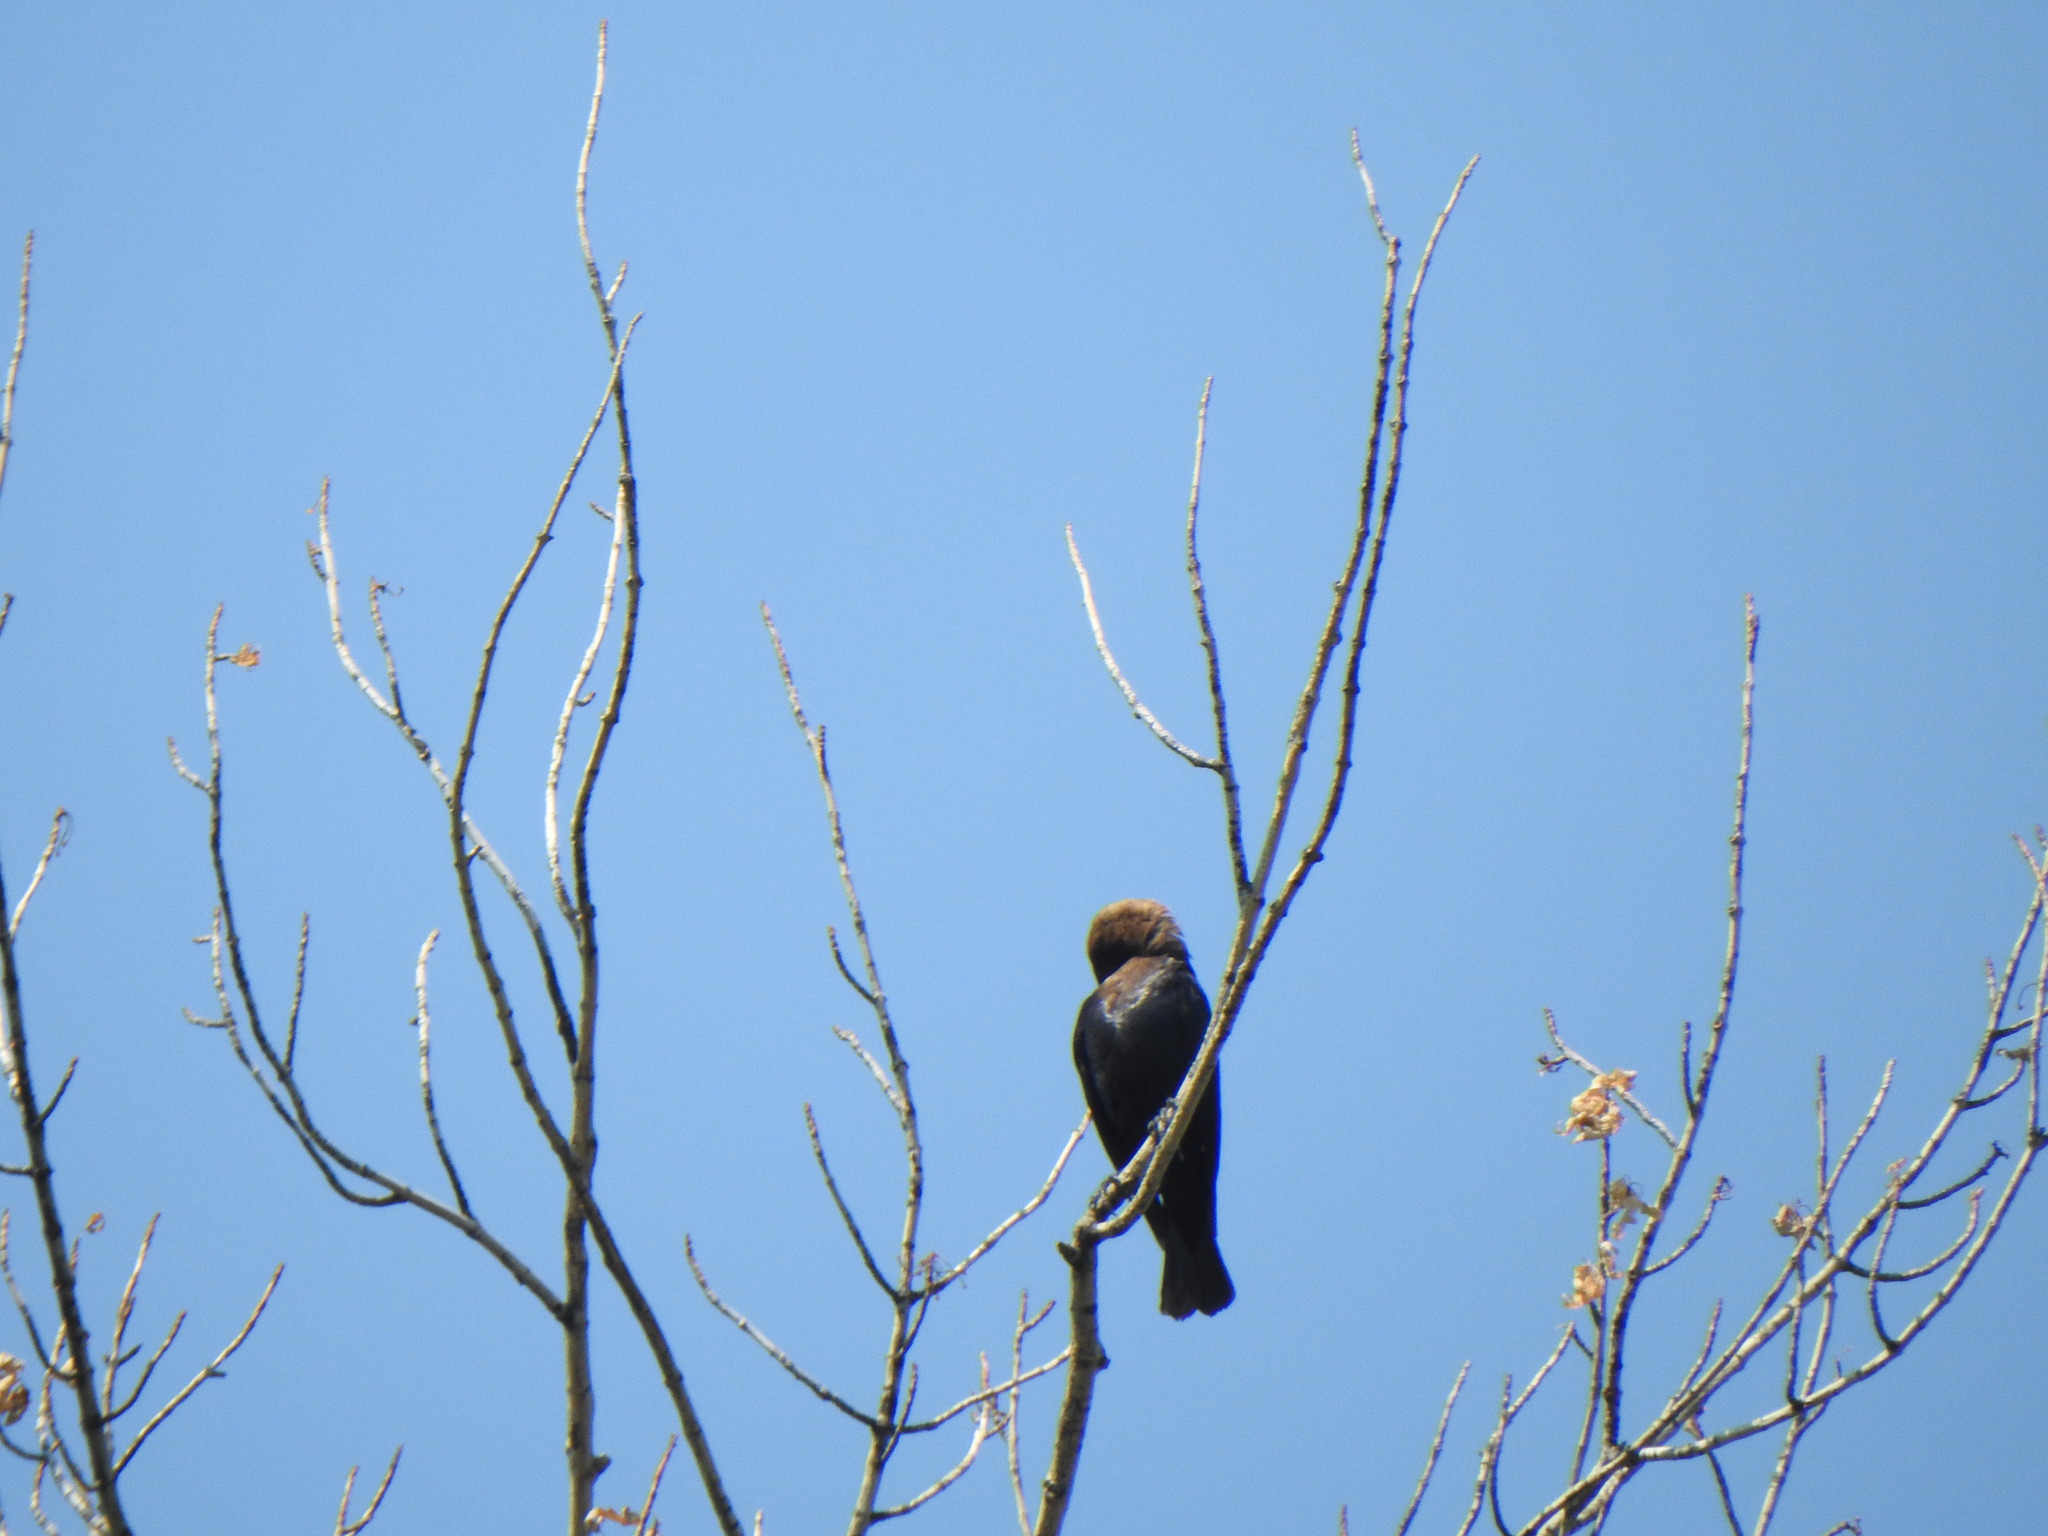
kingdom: Animalia
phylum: Chordata
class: Aves
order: Passeriformes
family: Icteridae
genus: Molothrus
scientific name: Molothrus ater
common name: Brown-headed cowbird
